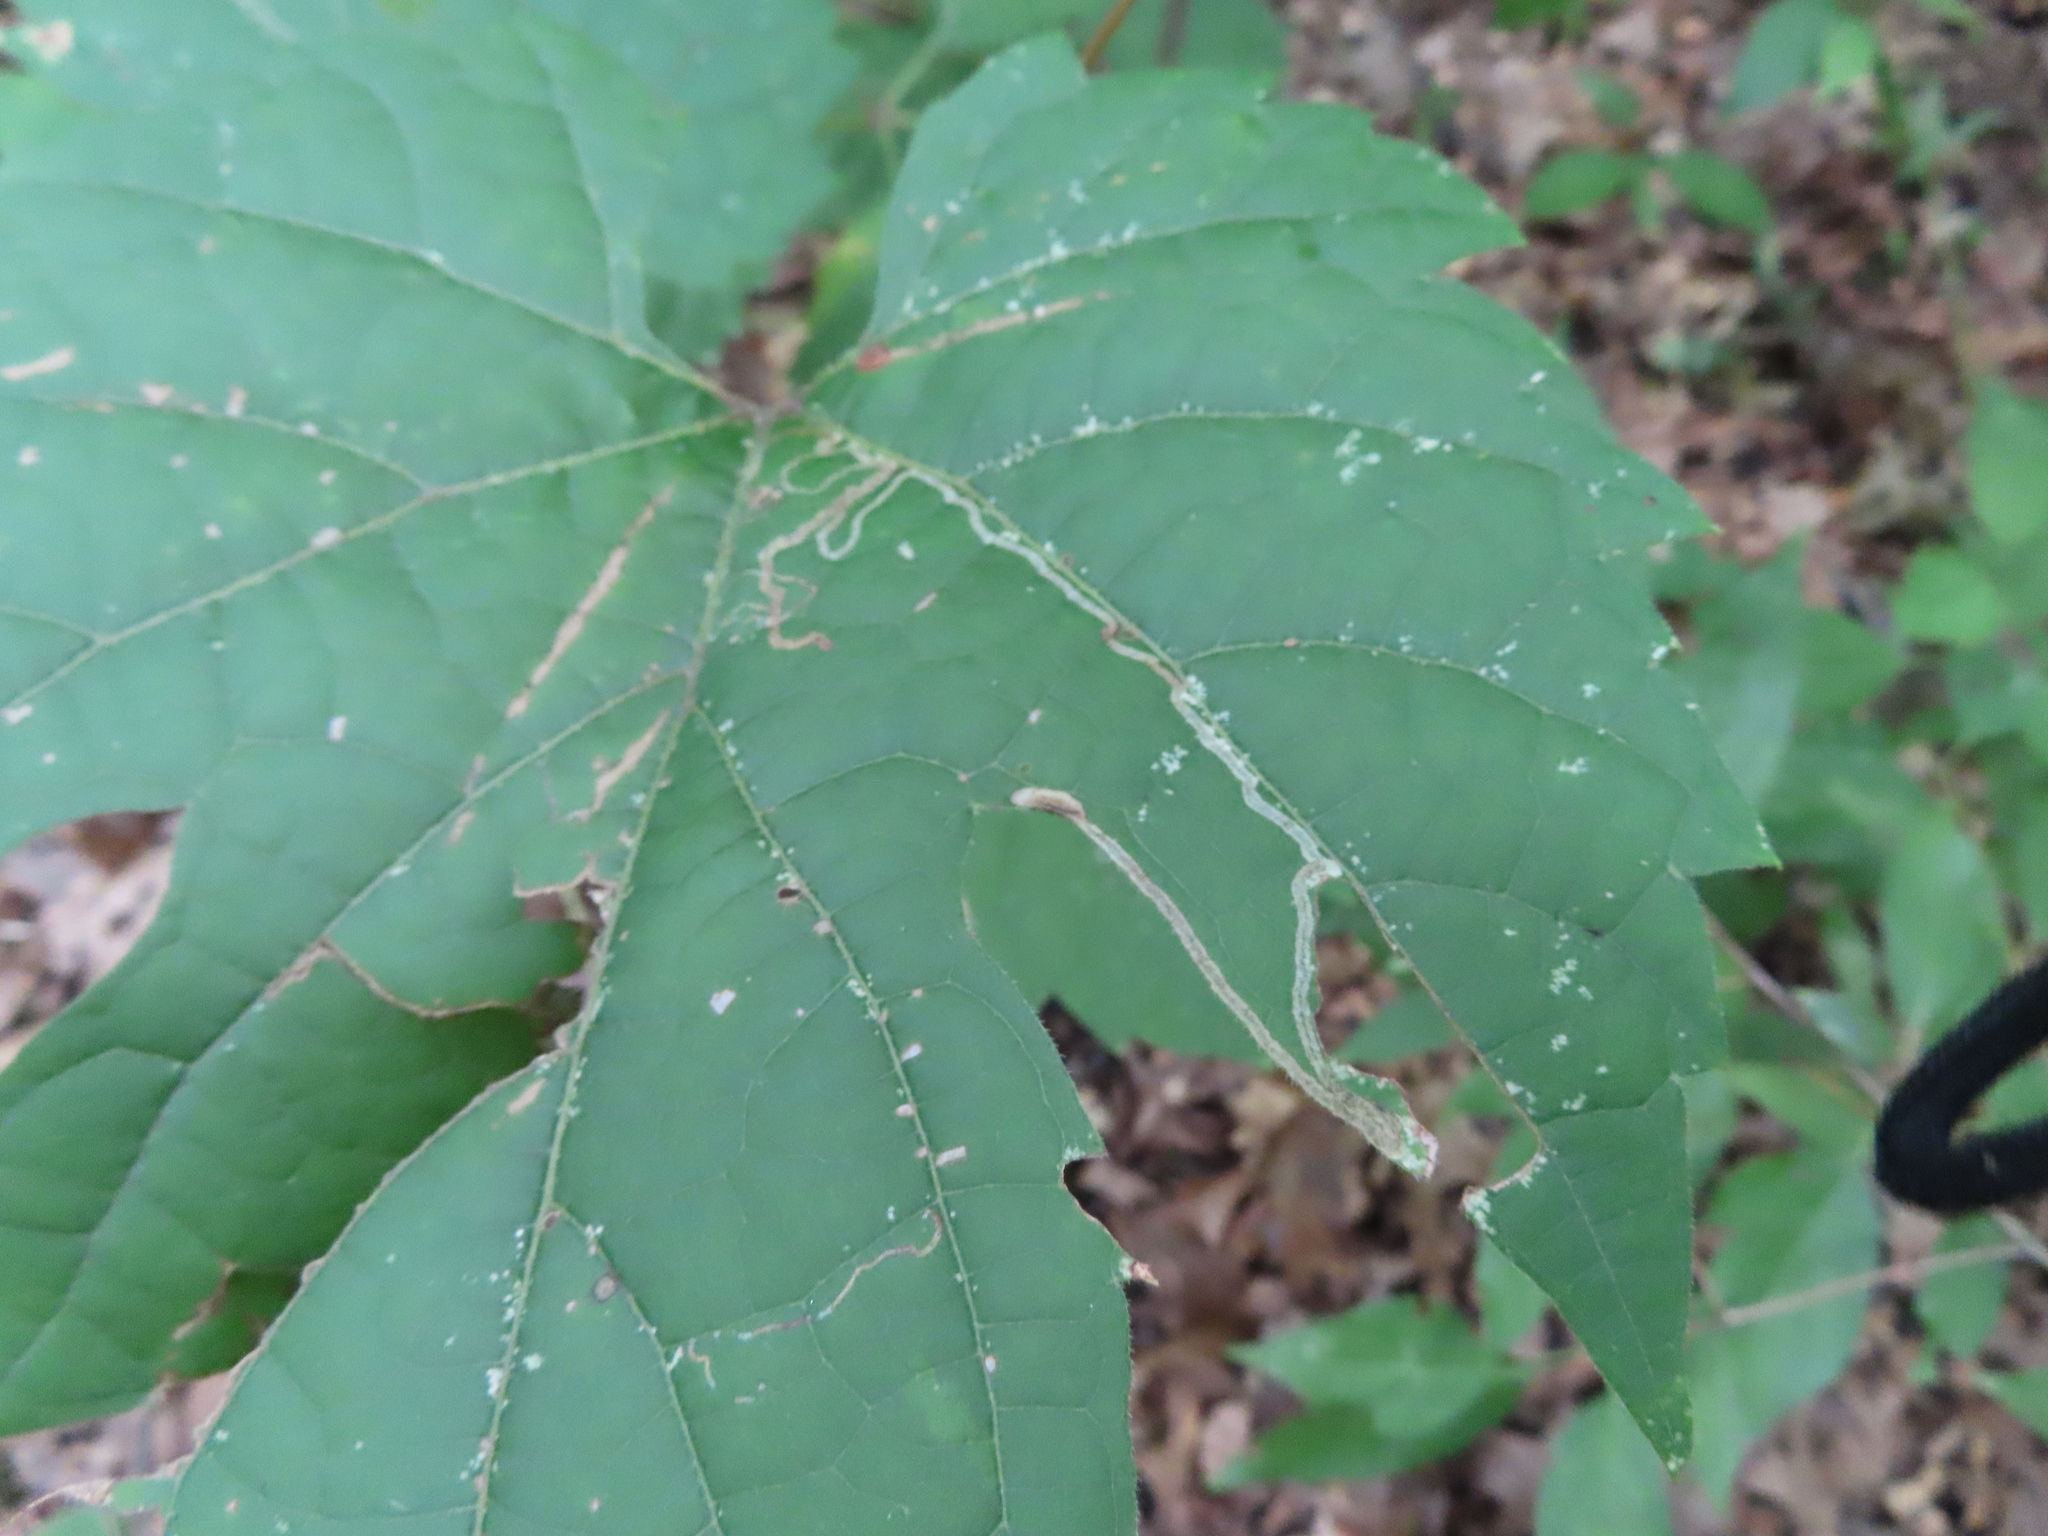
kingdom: Animalia
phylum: Arthropoda
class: Insecta
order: Lepidoptera
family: Gracillariidae
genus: Phyllocnistis
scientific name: Phyllocnistis vitifoliella
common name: Grape leaf-miner moth
